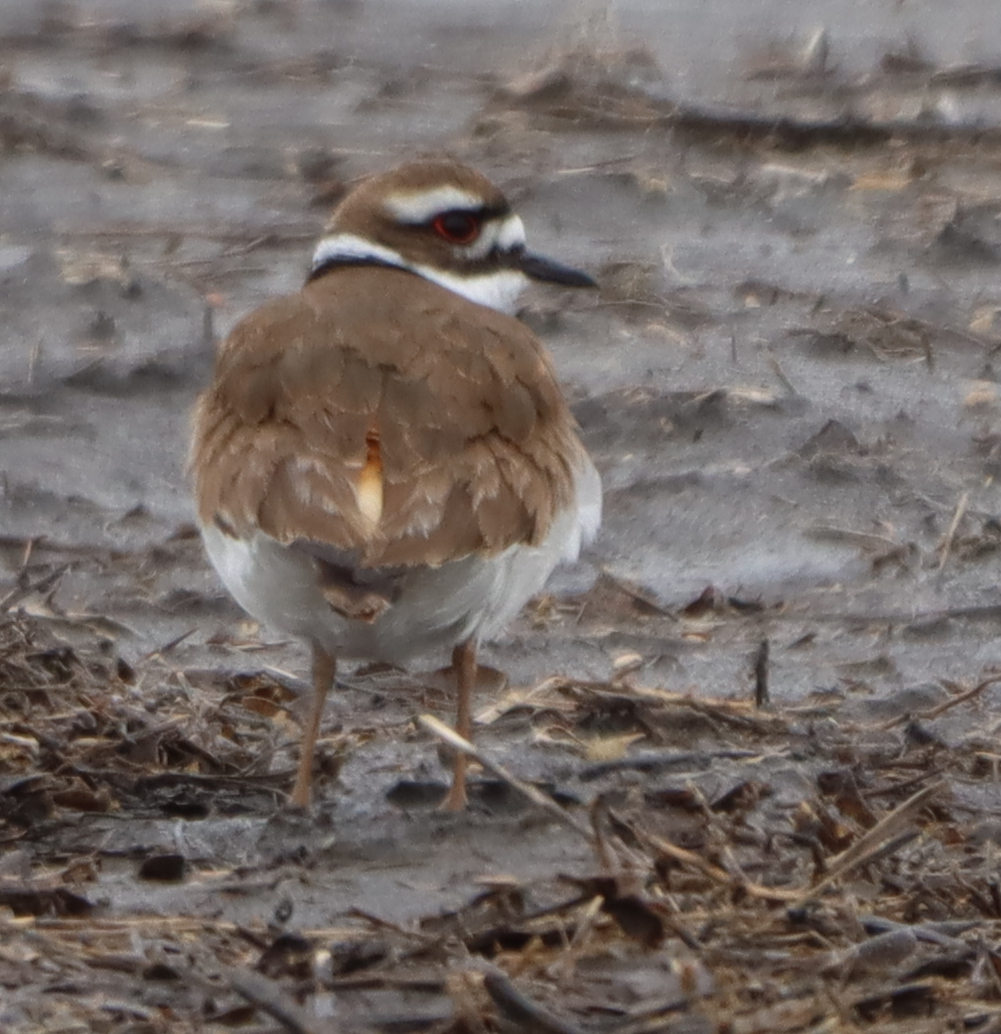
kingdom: Animalia
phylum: Chordata
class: Aves
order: Charadriiformes
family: Charadriidae
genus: Charadrius
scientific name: Charadrius vociferus
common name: Killdeer
